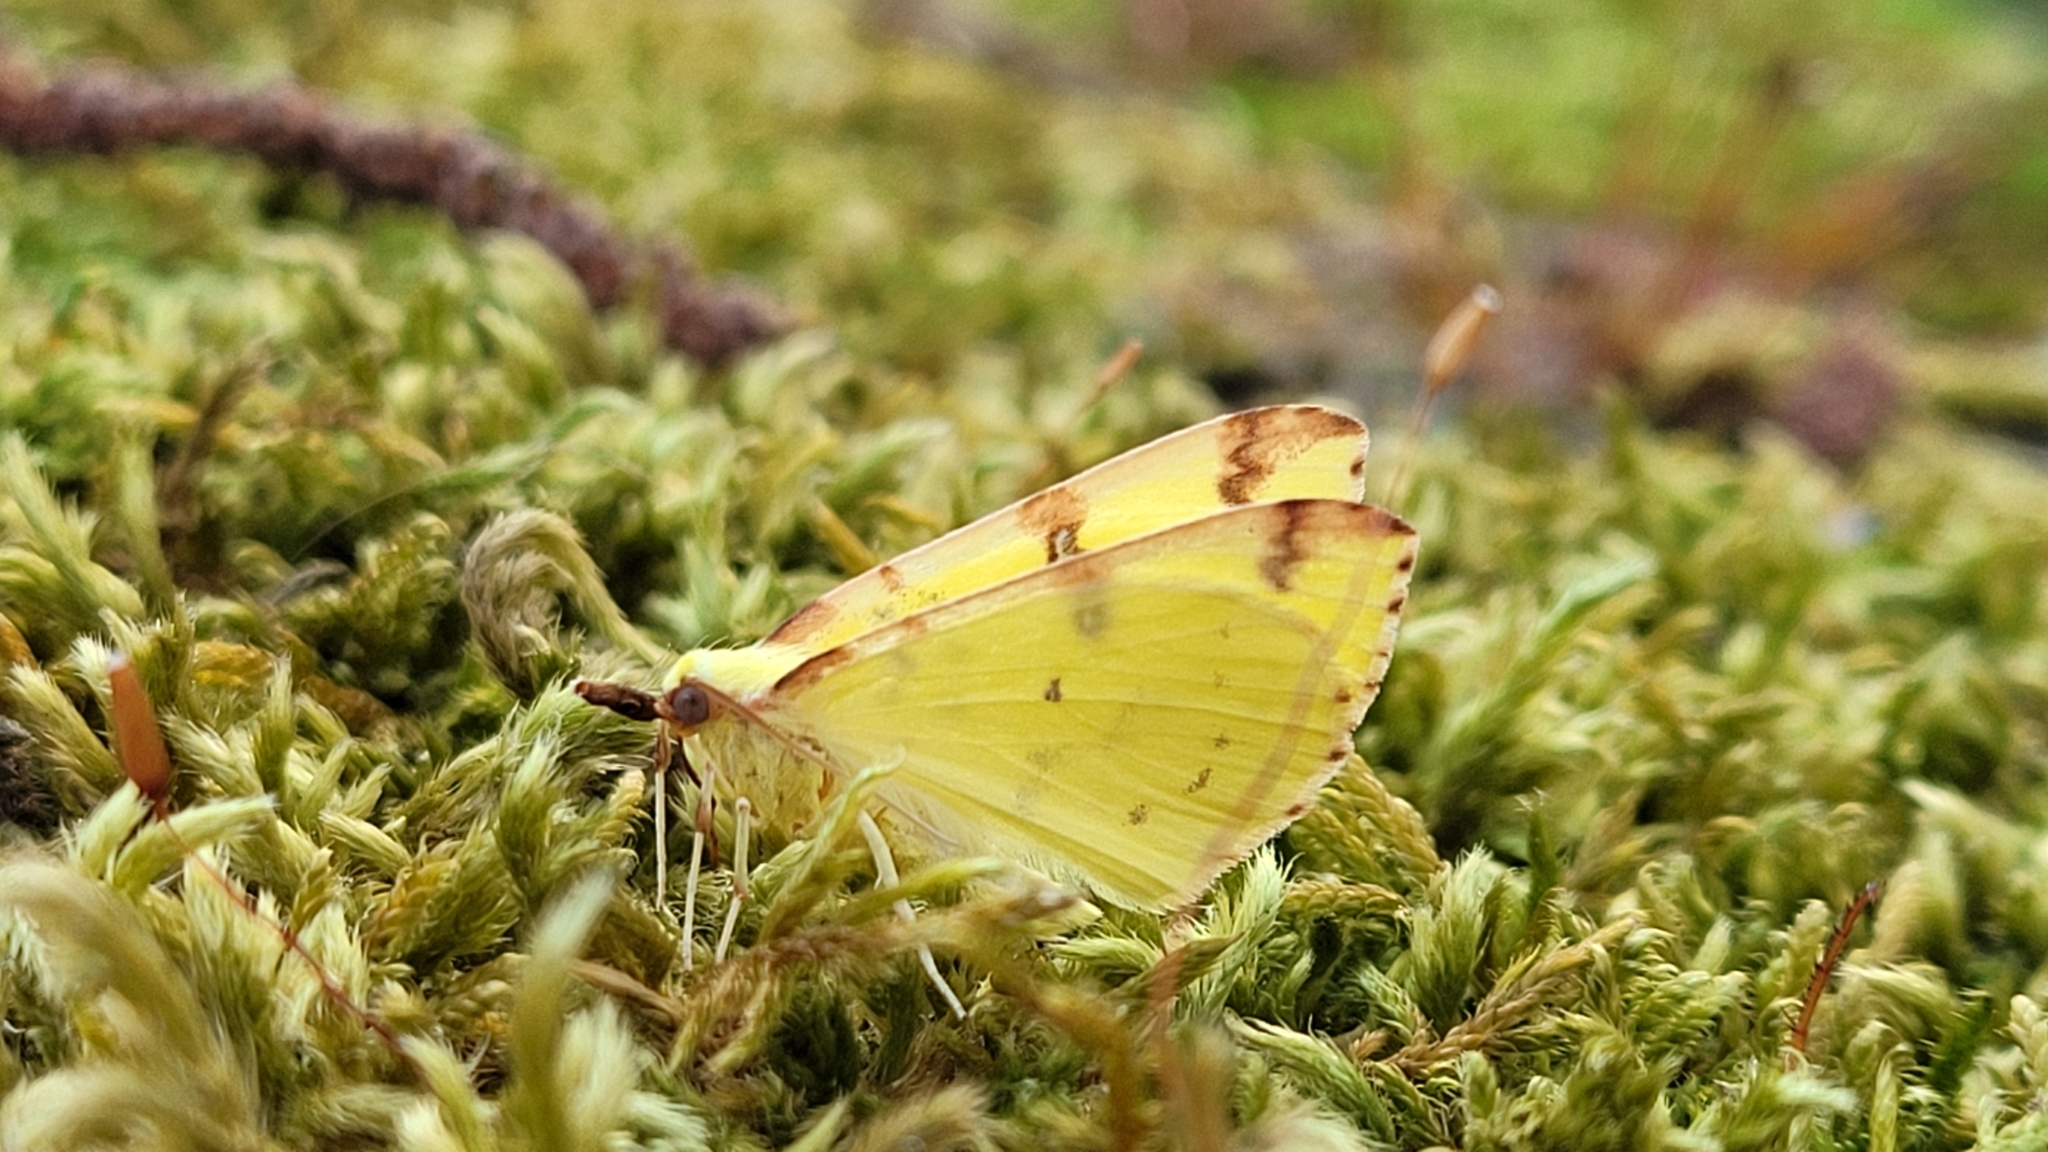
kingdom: Animalia
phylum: Arthropoda
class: Insecta
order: Lepidoptera
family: Geometridae
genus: Opisthograptis
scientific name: Opisthograptis luteolata
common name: Brimstone moth
